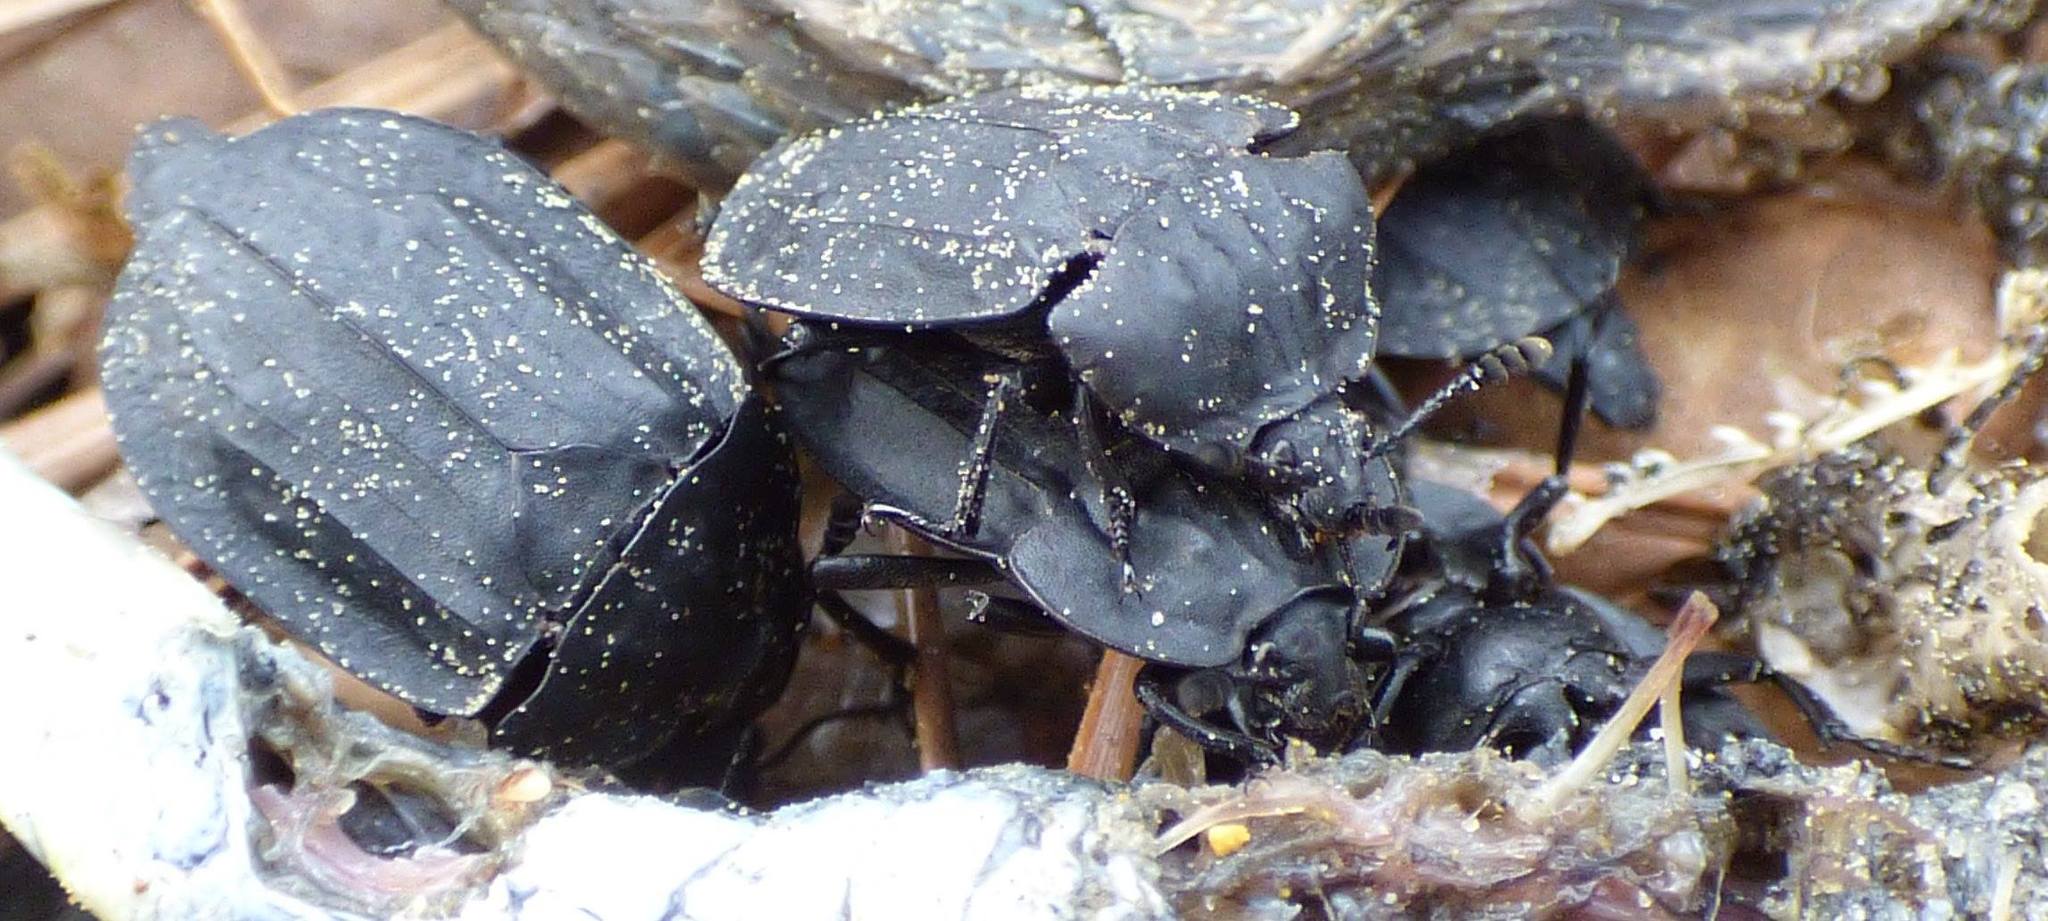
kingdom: Animalia
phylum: Arthropoda
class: Insecta
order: Coleoptera
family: Staphylinidae
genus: Oiceoptoma
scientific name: Oiceoptoma inaequale
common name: Ridged carrion beetle
